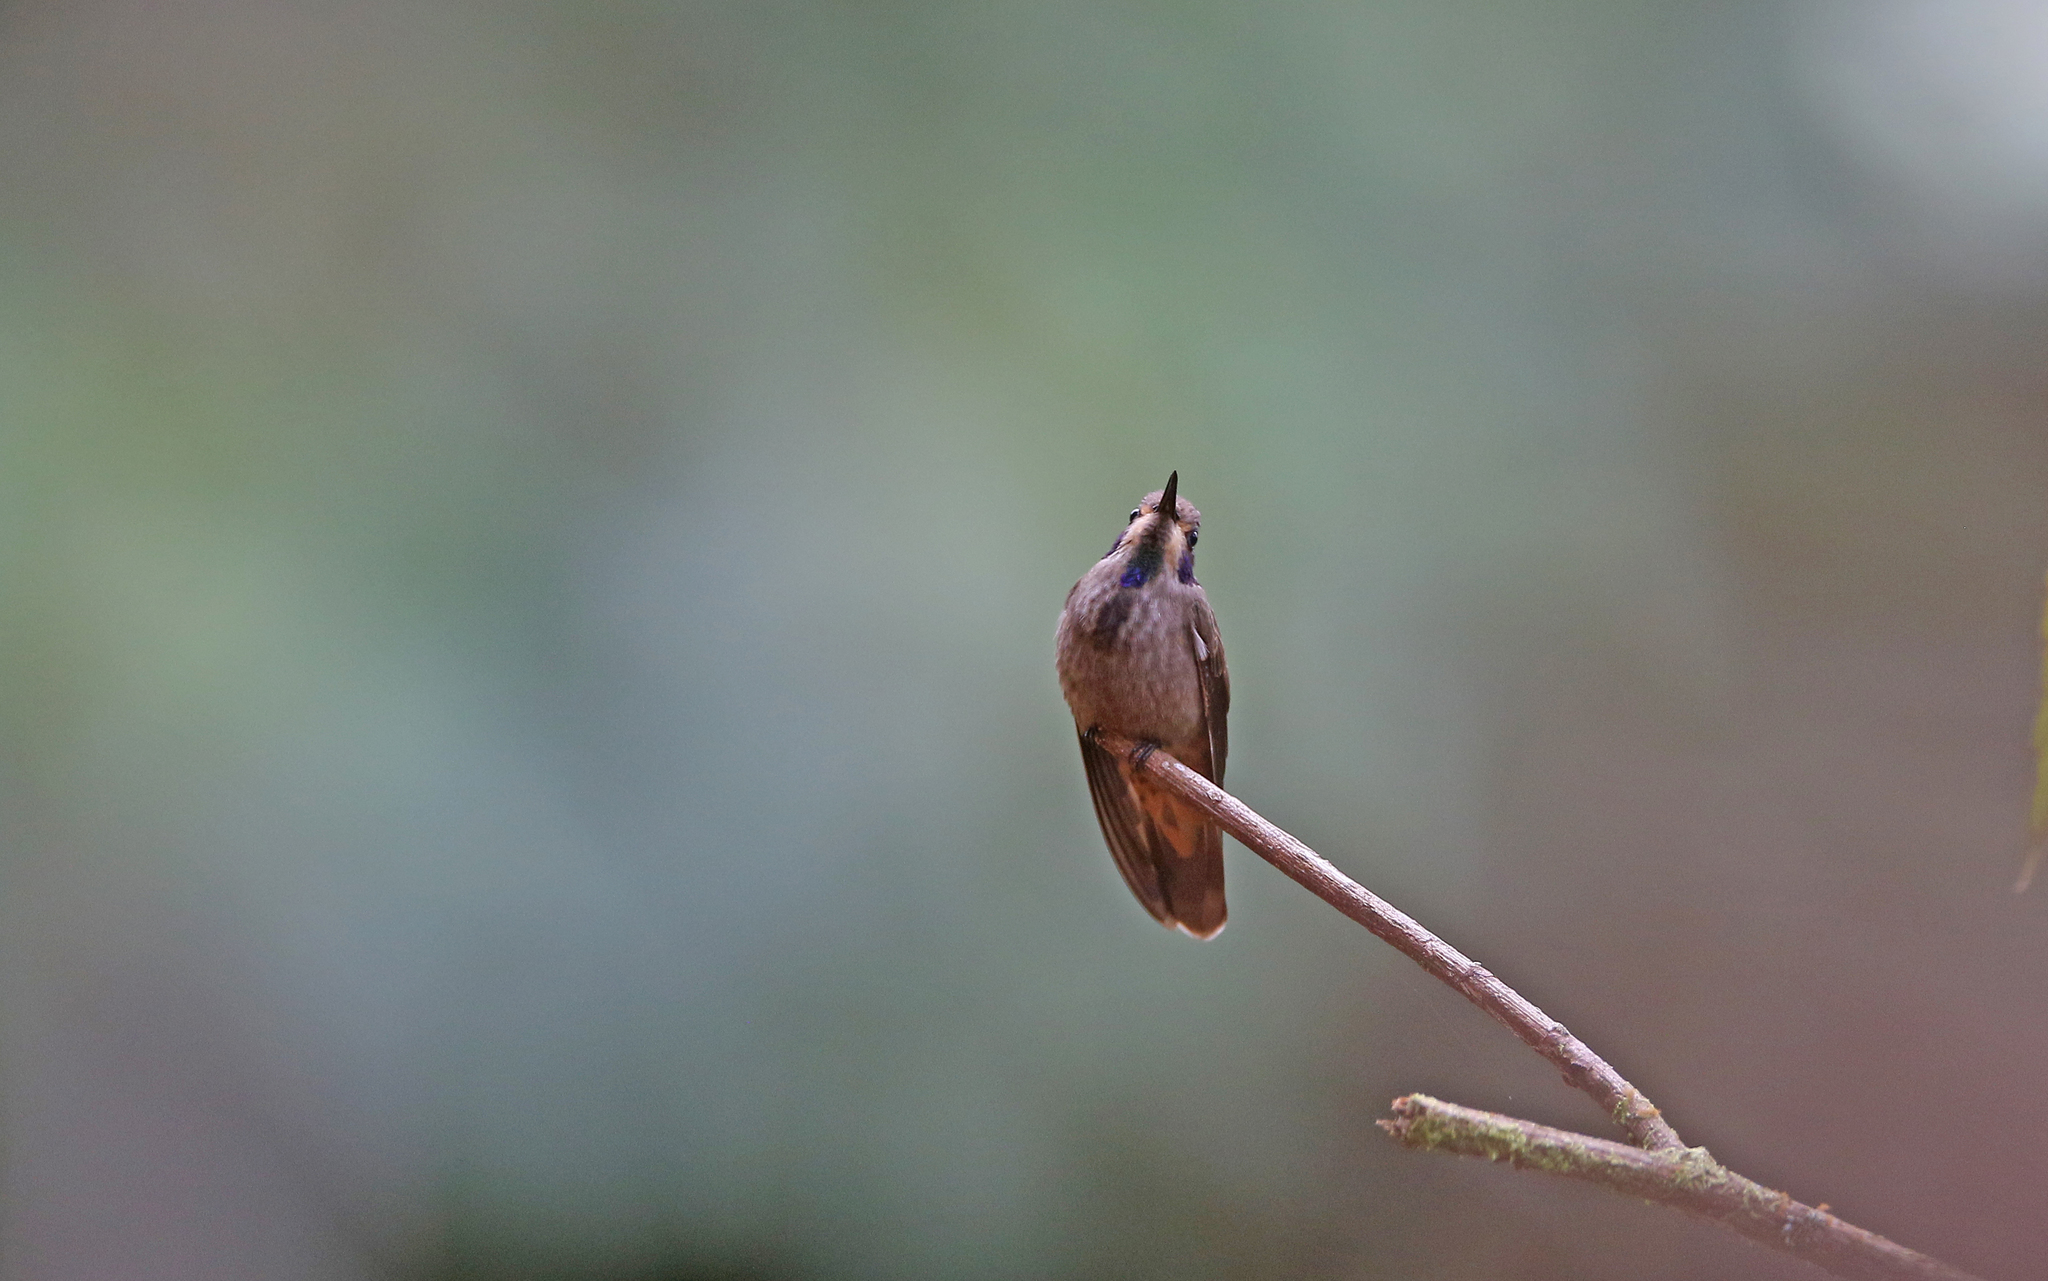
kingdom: Animalia
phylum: Chordata
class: Aves
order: Apodiformes
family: Trochilidae
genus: Colibri
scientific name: Colibri delphinae
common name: Brown violetear
